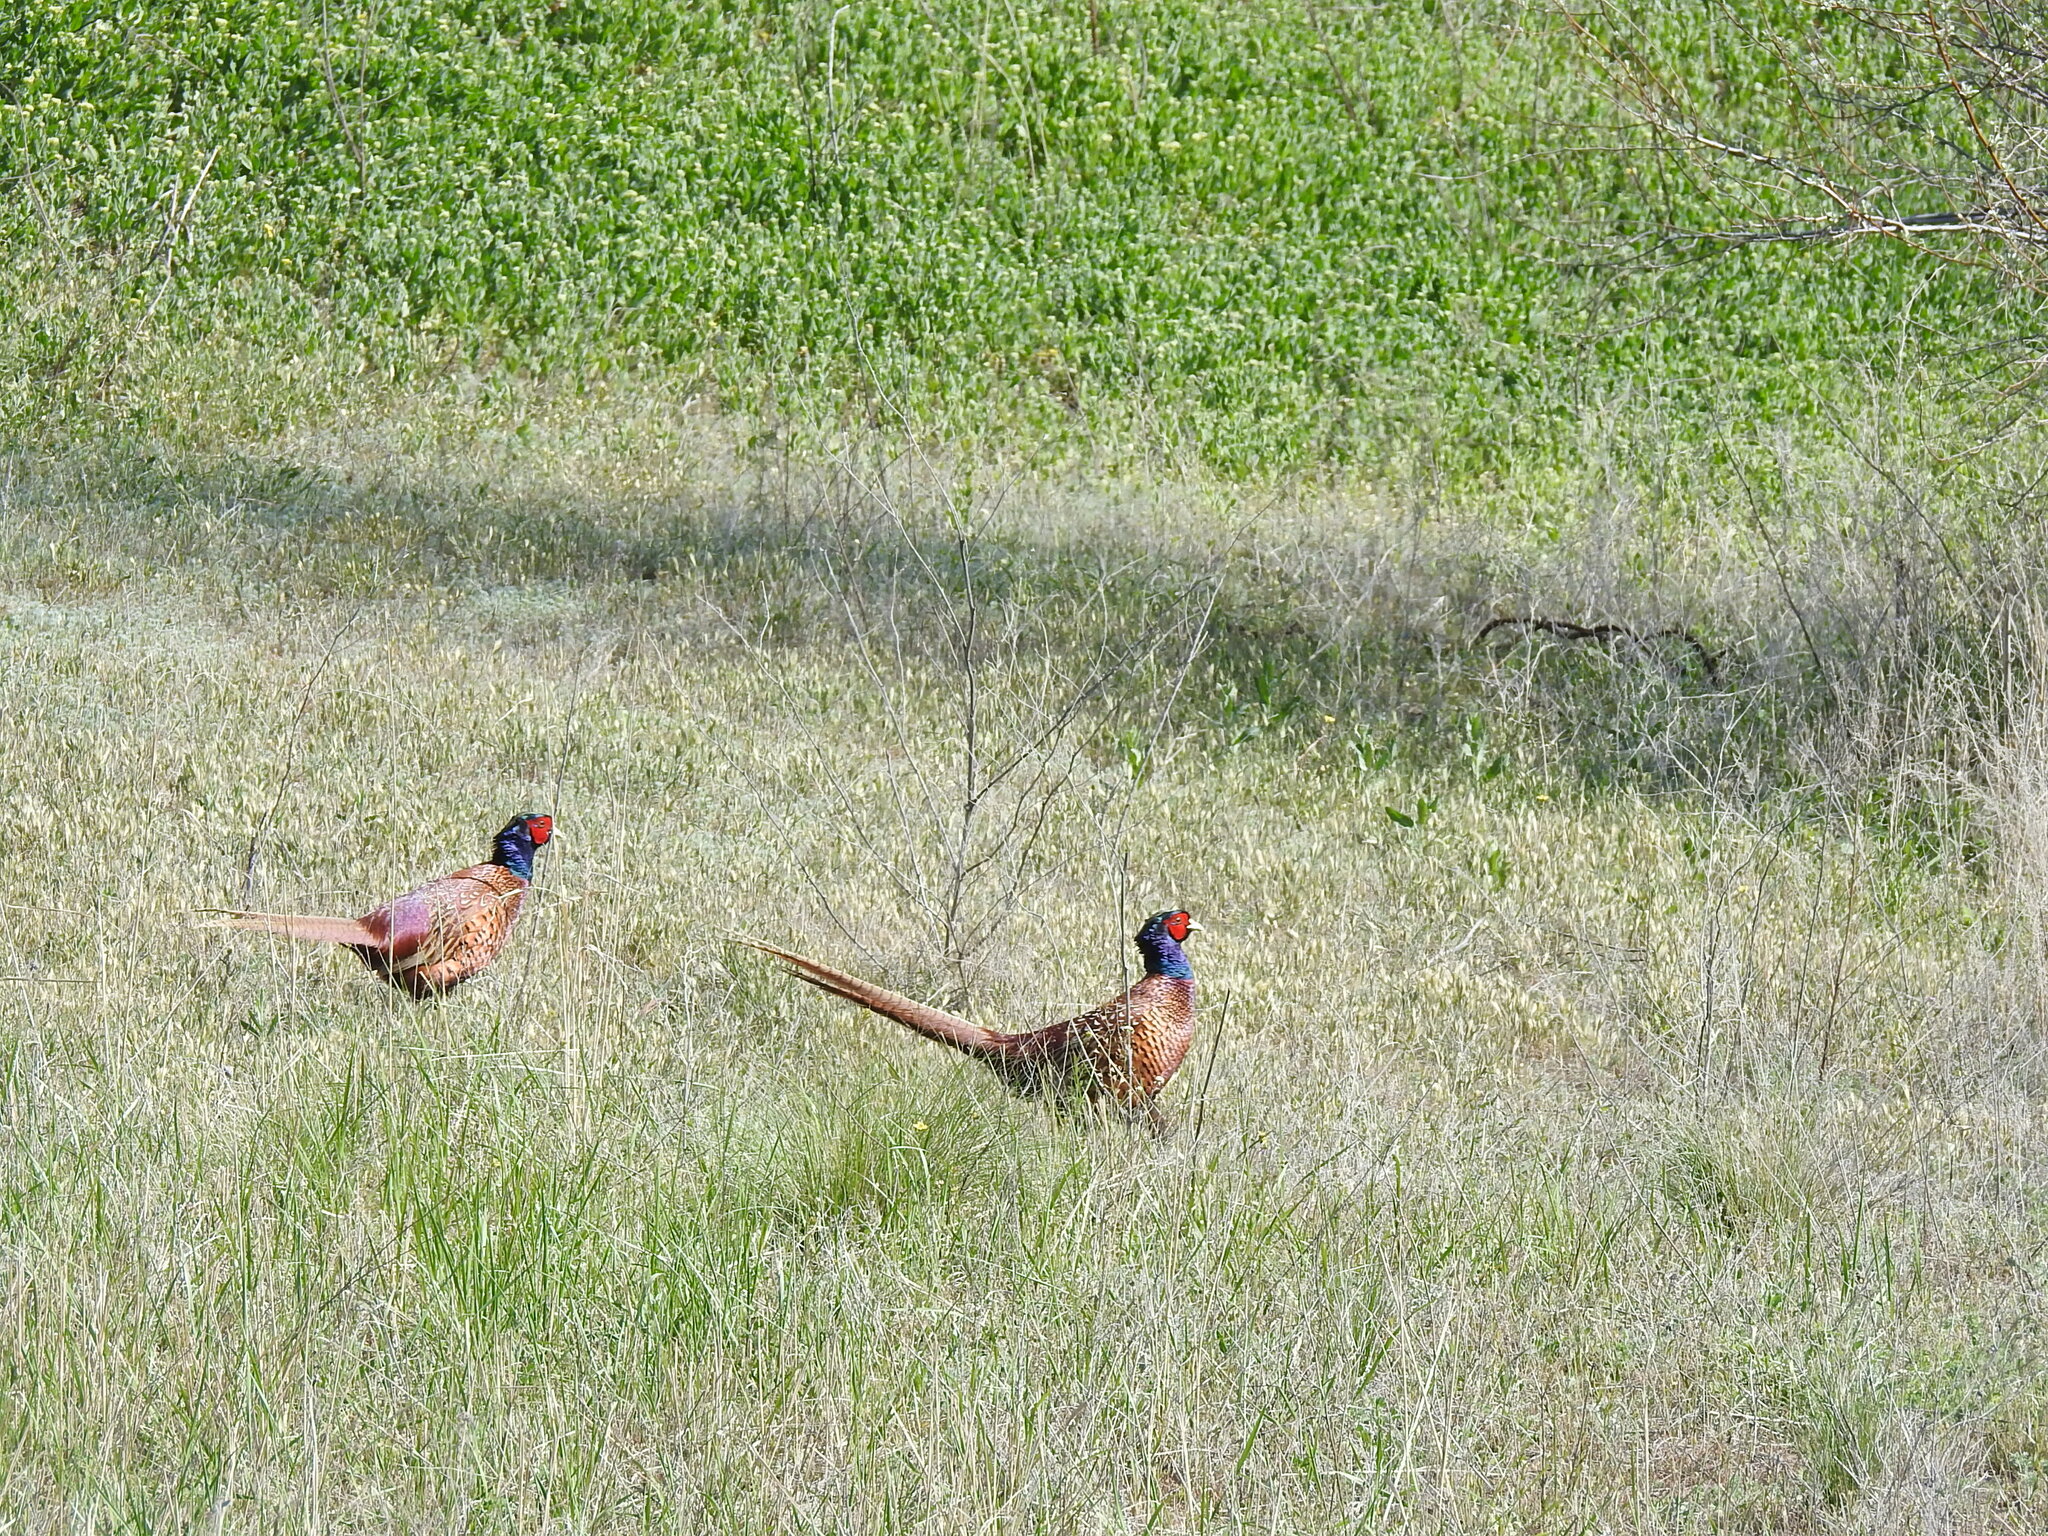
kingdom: Animalia
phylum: Chordata
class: Aves
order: Galliformes
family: Phasianidae
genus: Phasianus
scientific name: Phasianus colchicus
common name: Common pheasant
